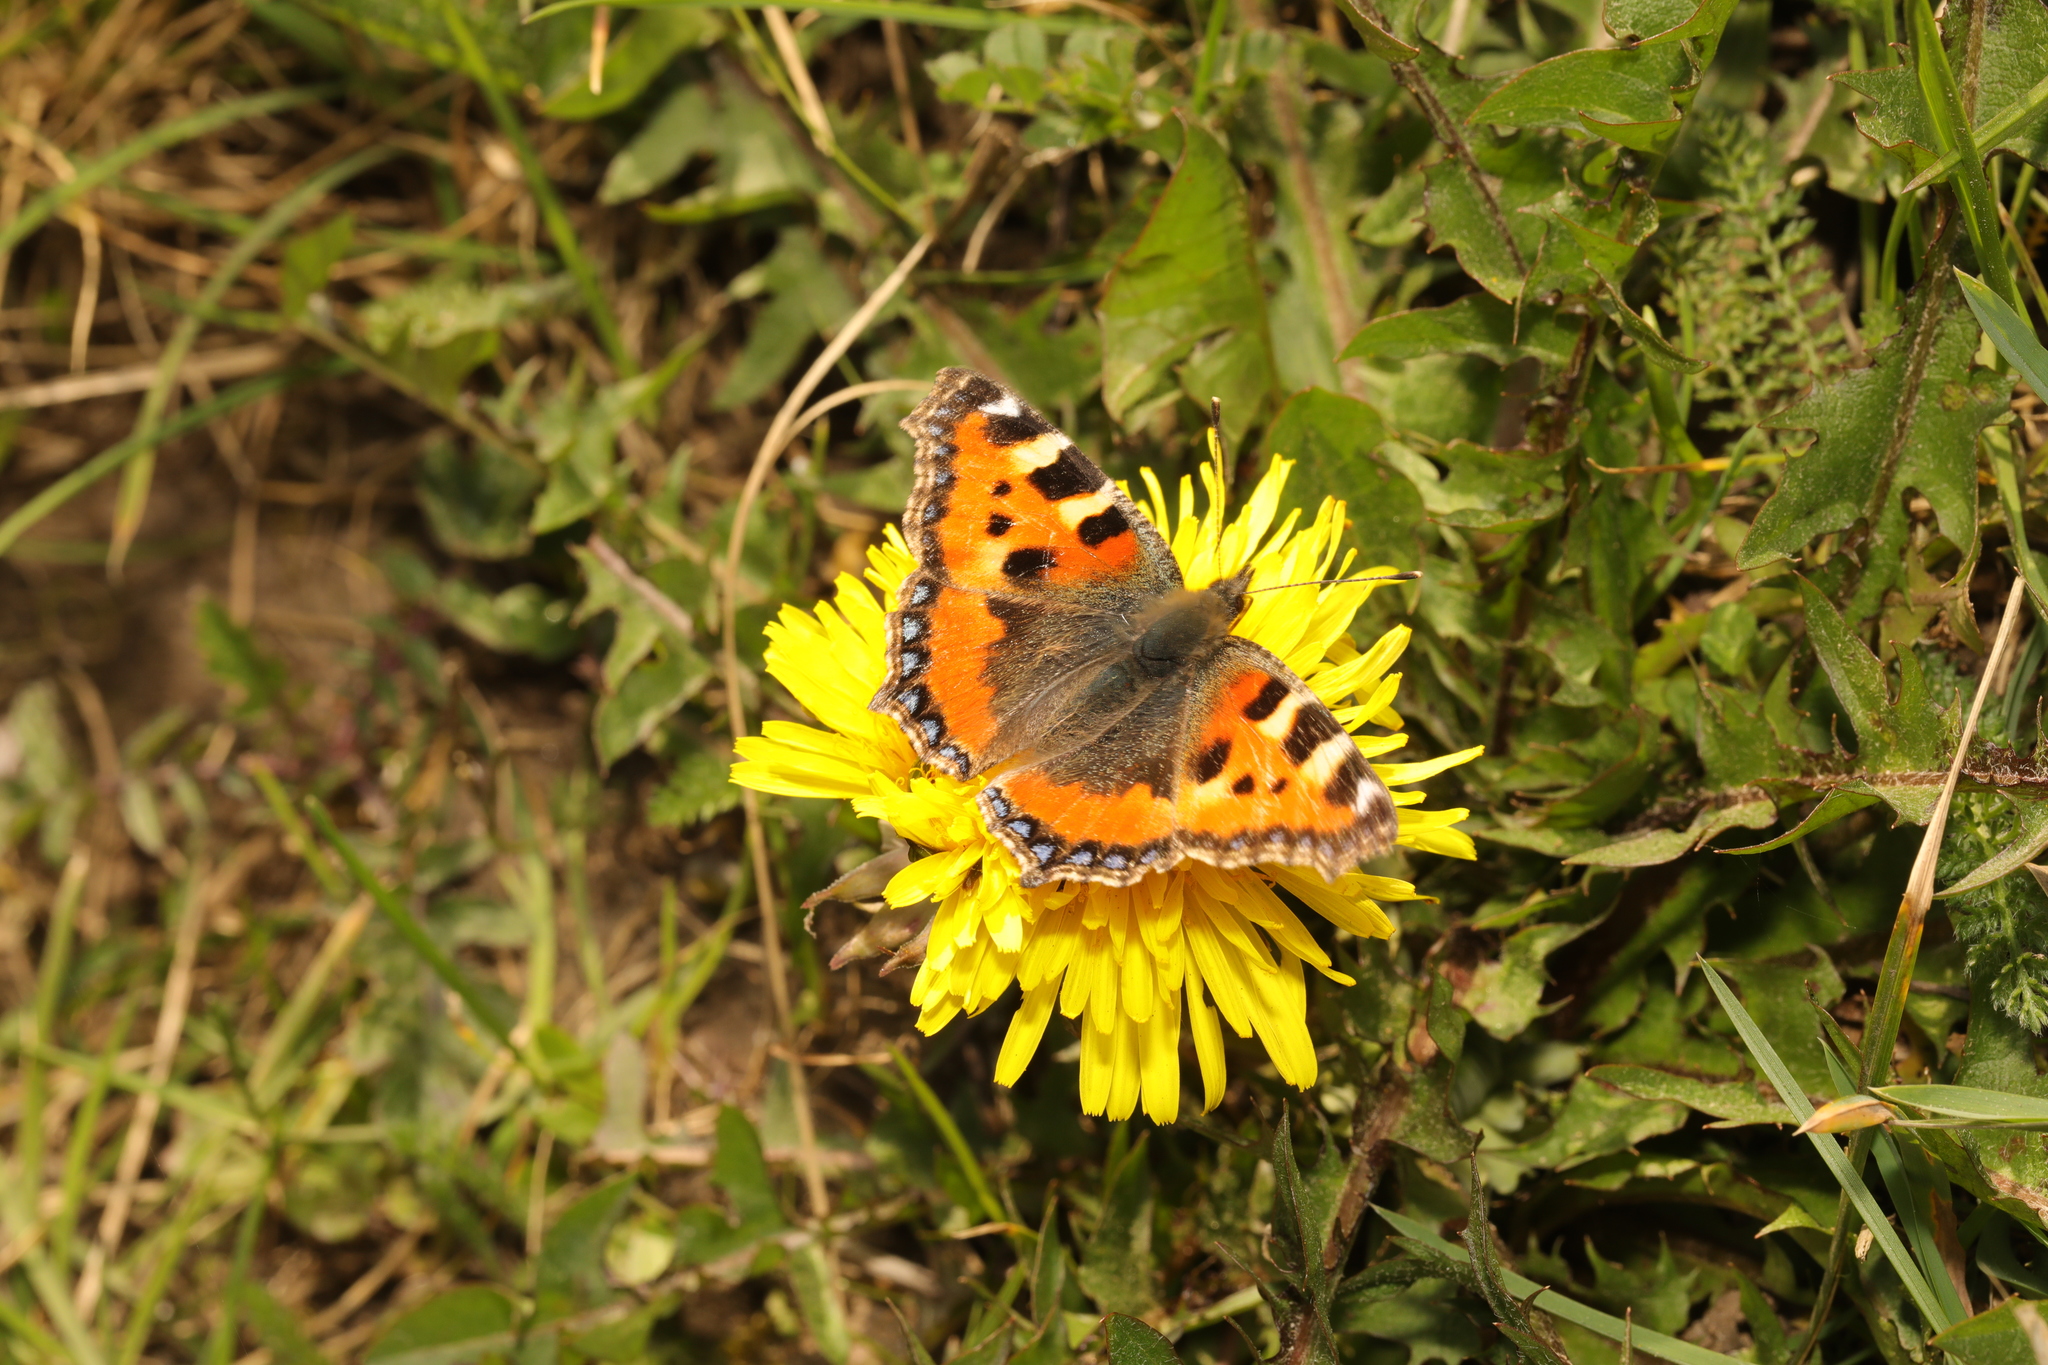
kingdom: Animalia
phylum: Arthropoda
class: Insecta
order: Lepidoptera
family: Nymphalidae
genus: Aglais
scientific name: Aglais urticae
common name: Small tortoiseshell
